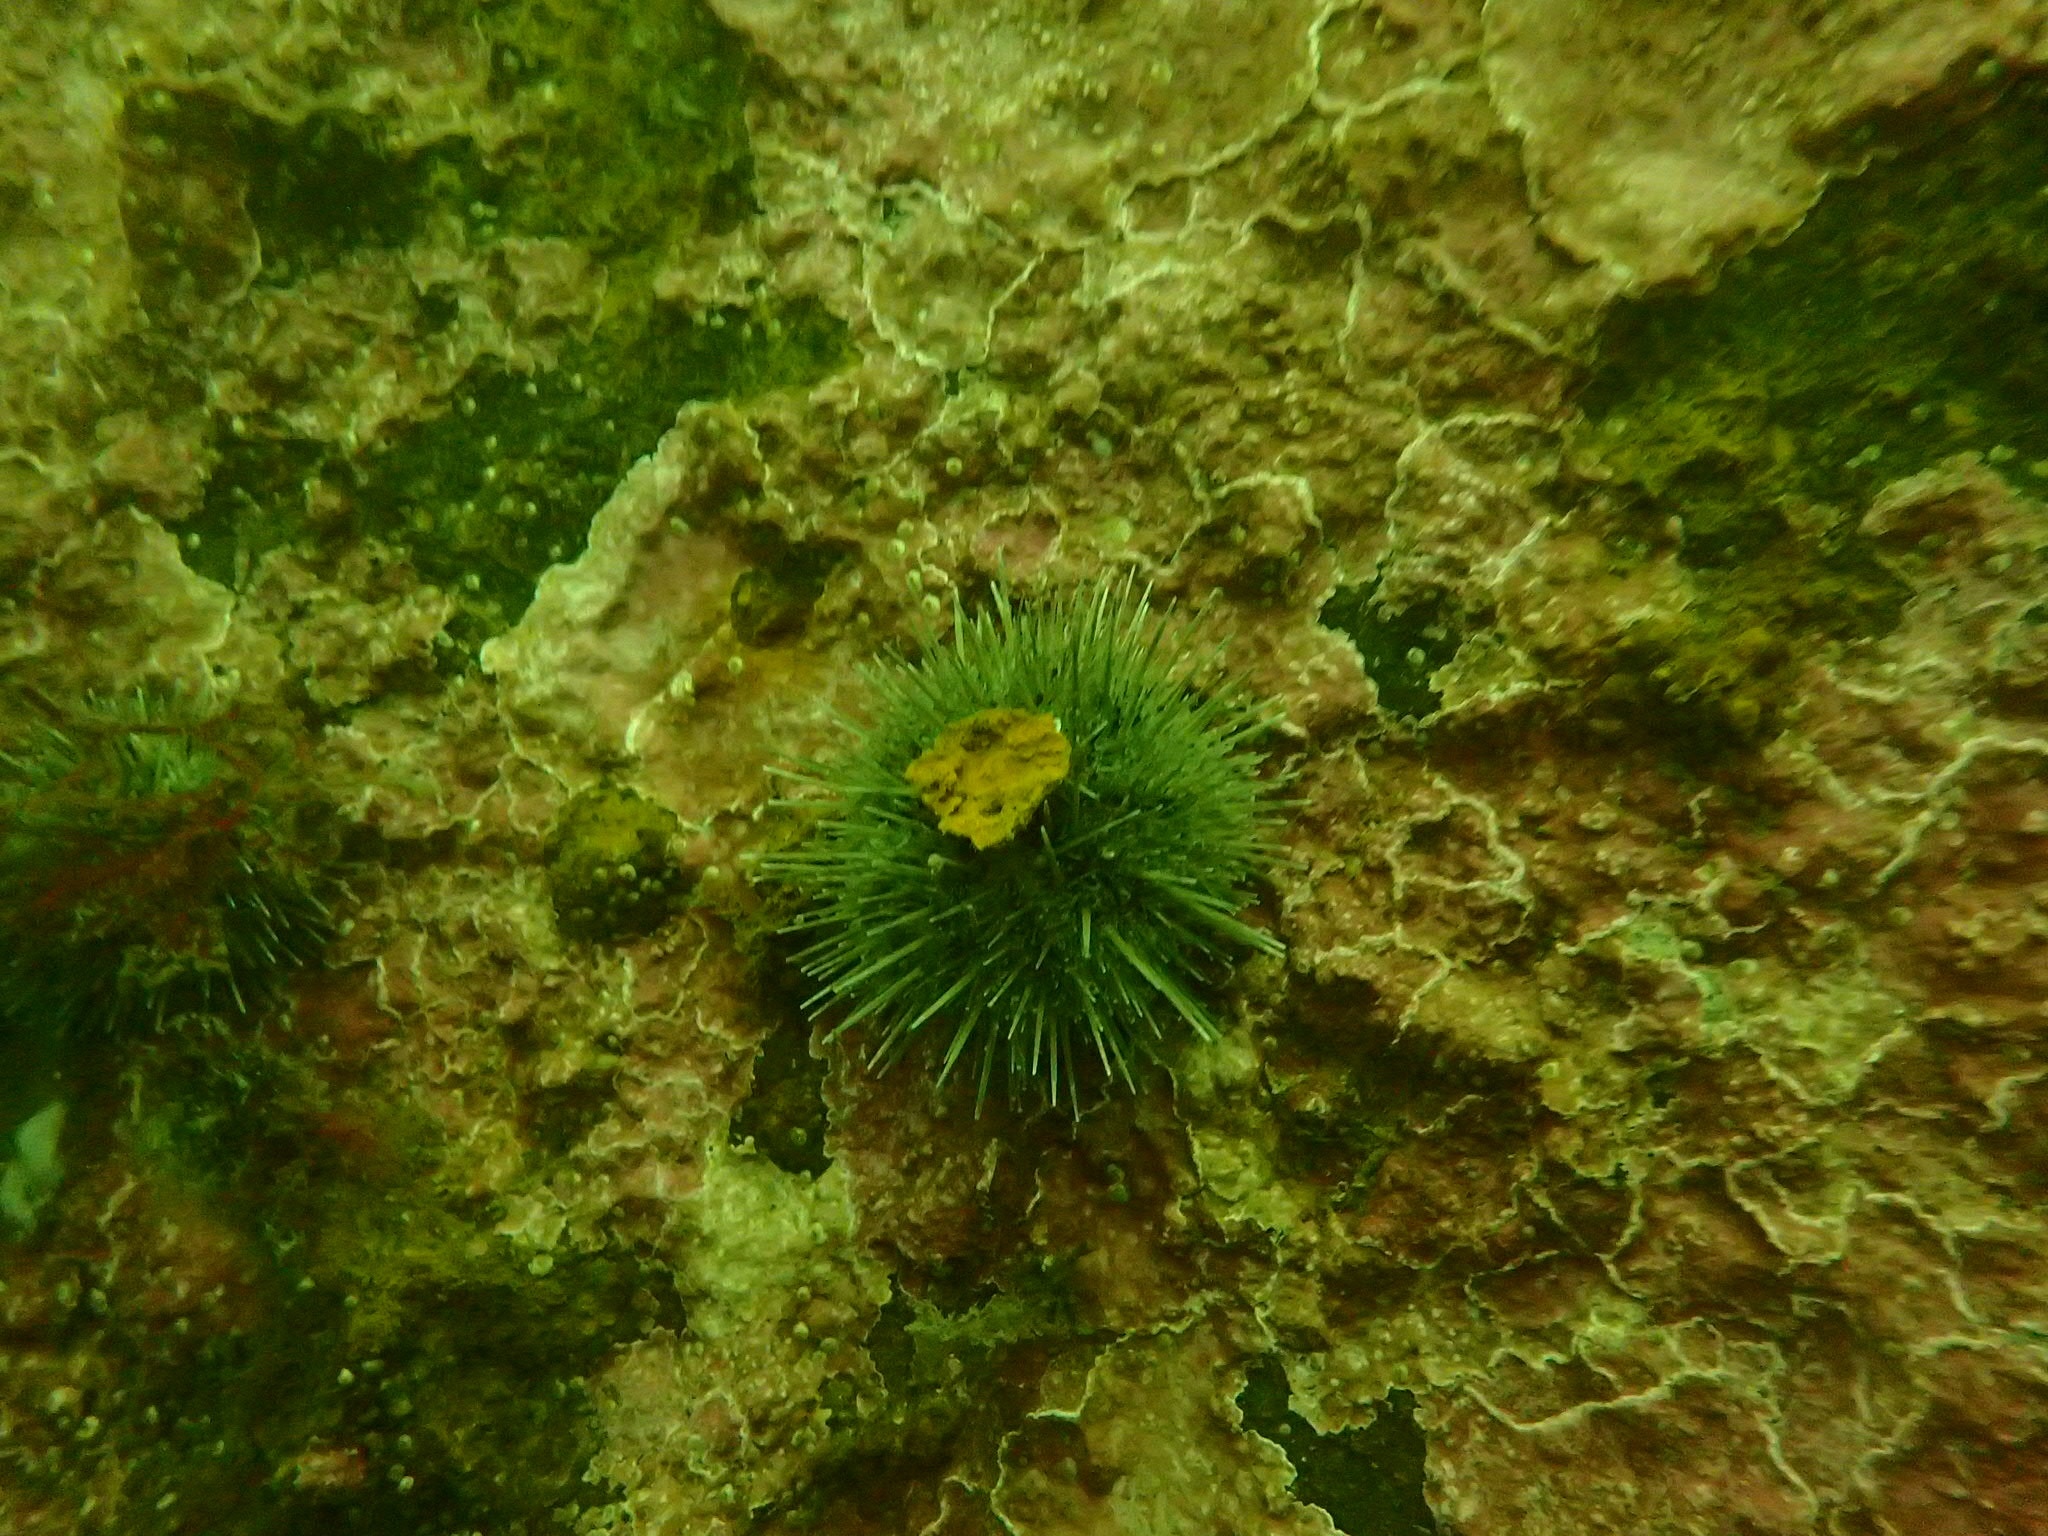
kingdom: Animalia
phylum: Echinodermata
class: Echinoidea
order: Camarodonta
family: Strongylocentrotidae
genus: Strongylocentrotus
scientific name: Strongylocentrotus droebachiensis
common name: Northern sea urchin
